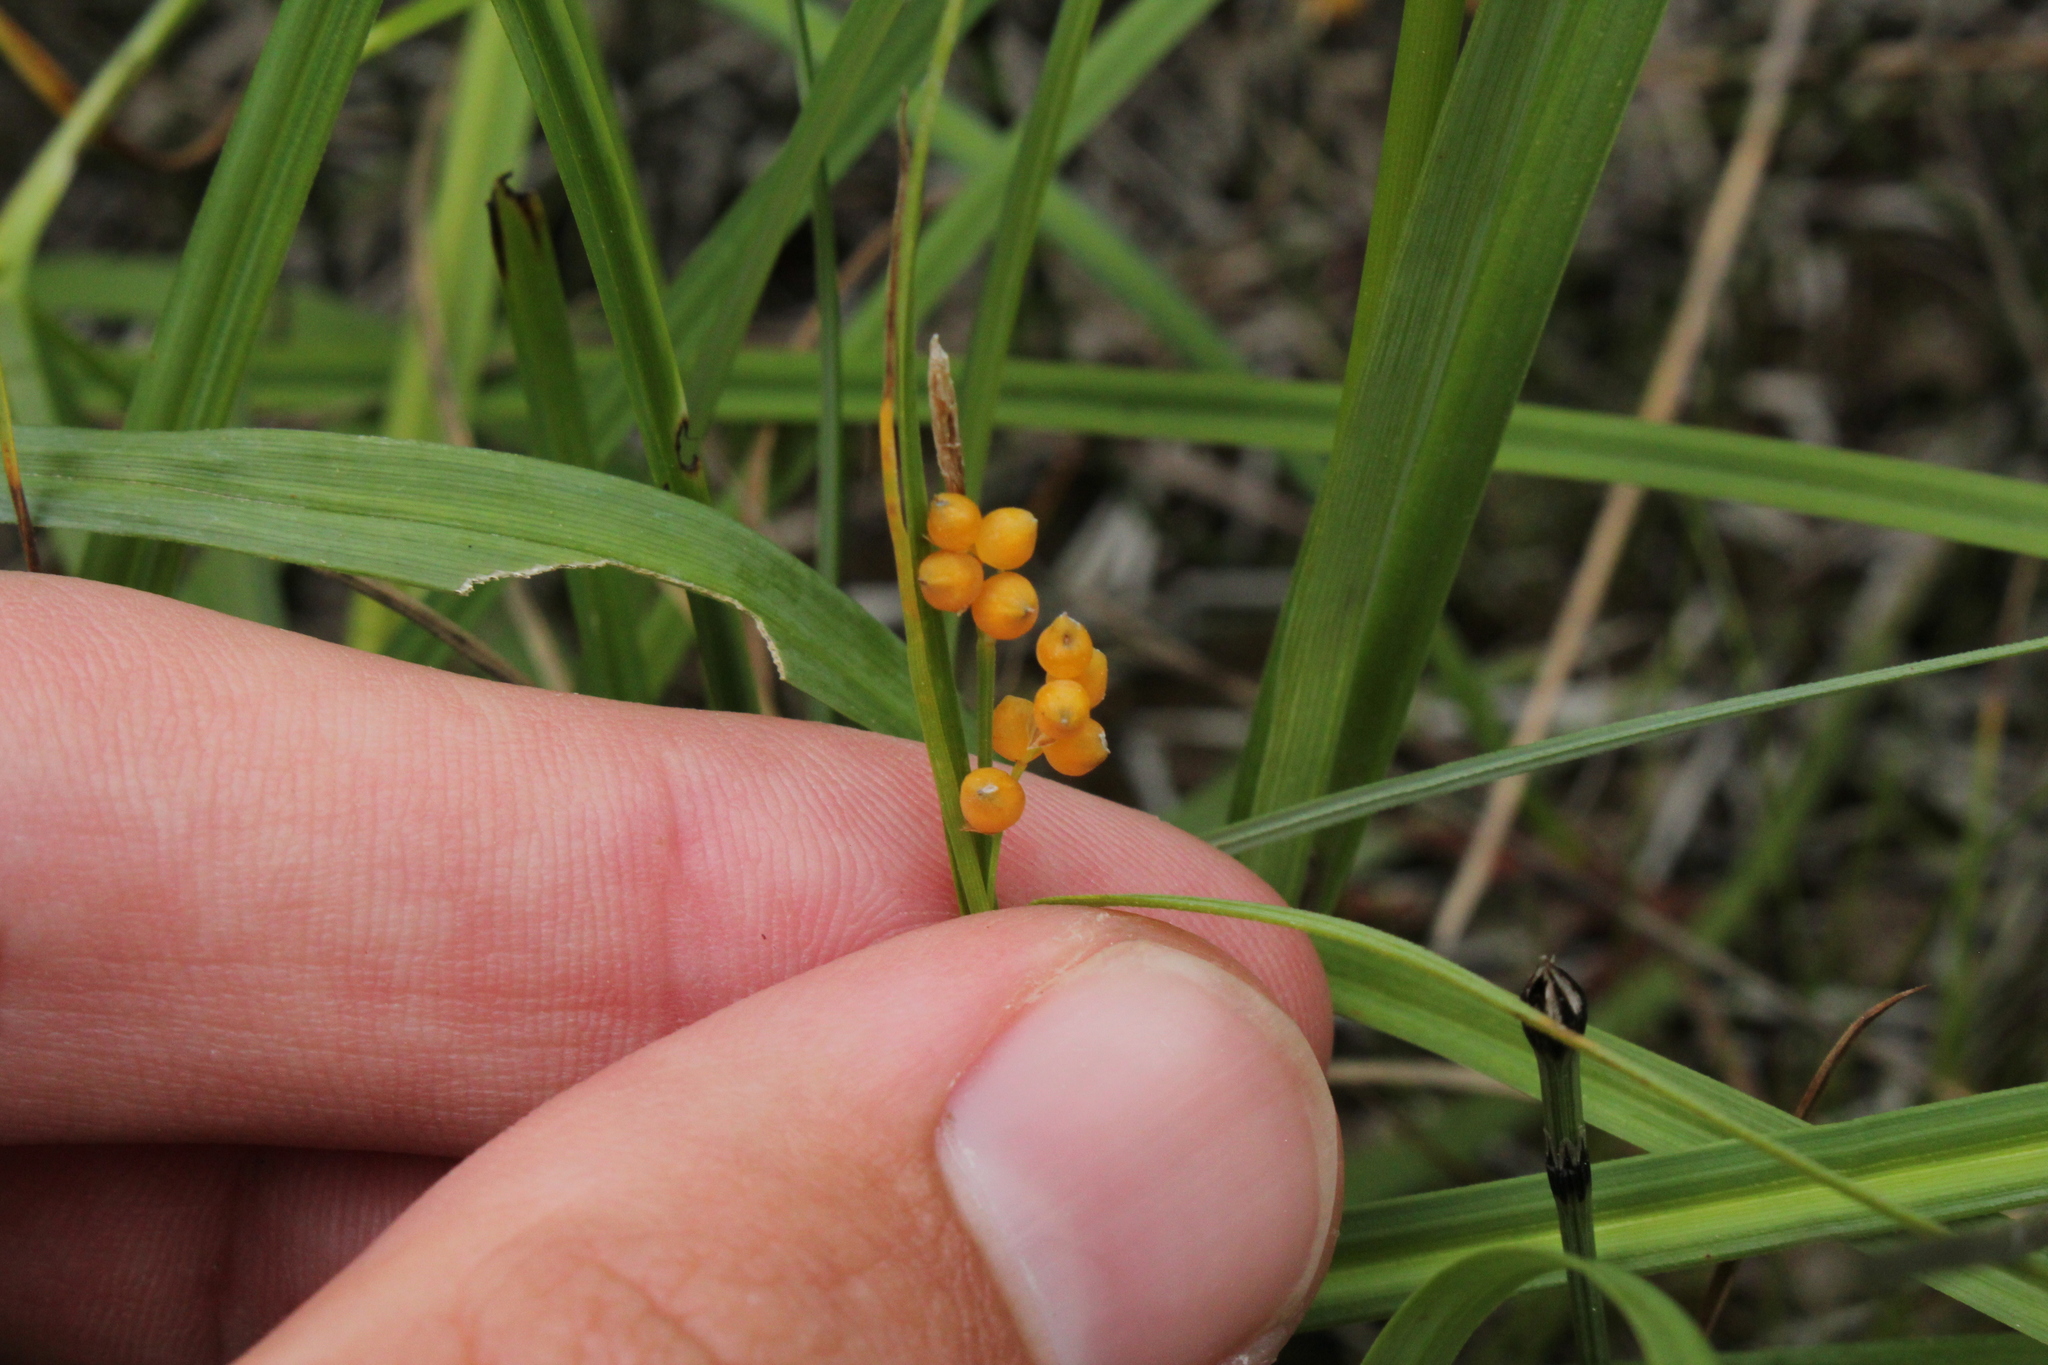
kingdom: Plantae
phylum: Tracheophyta
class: Liliopsida
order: Poales
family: Cyperaceae
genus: Carex
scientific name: Carex aurea
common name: Golden sedge
